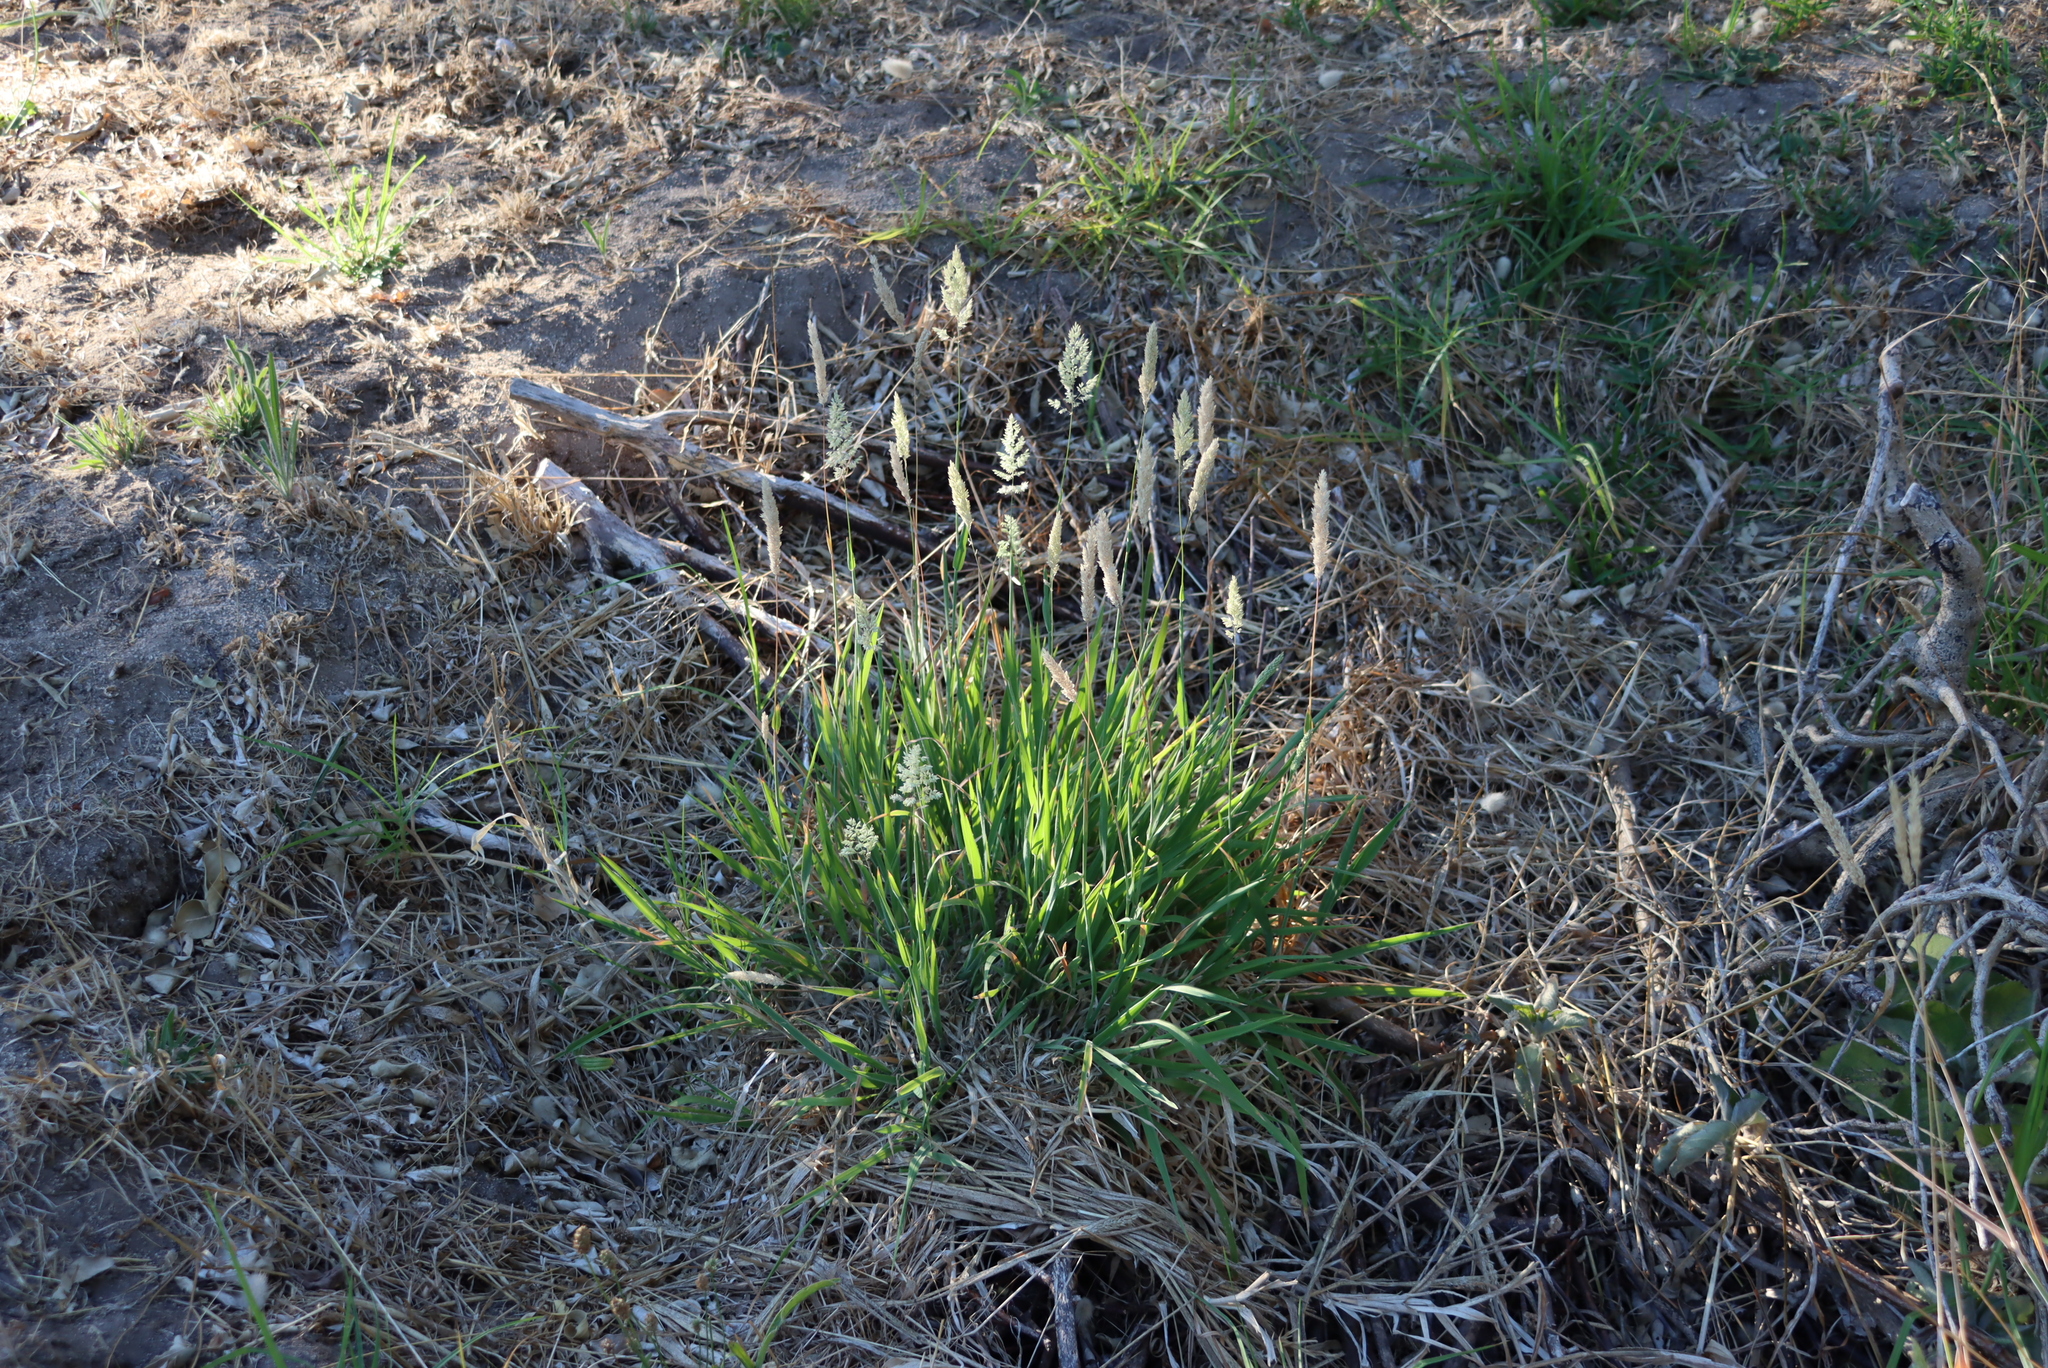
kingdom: Plantae
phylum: Tracheophyta
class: Liliopsida
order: Poales
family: Poaceae
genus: Holcus
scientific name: Holcus lanatus
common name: Yorkshire-fog
